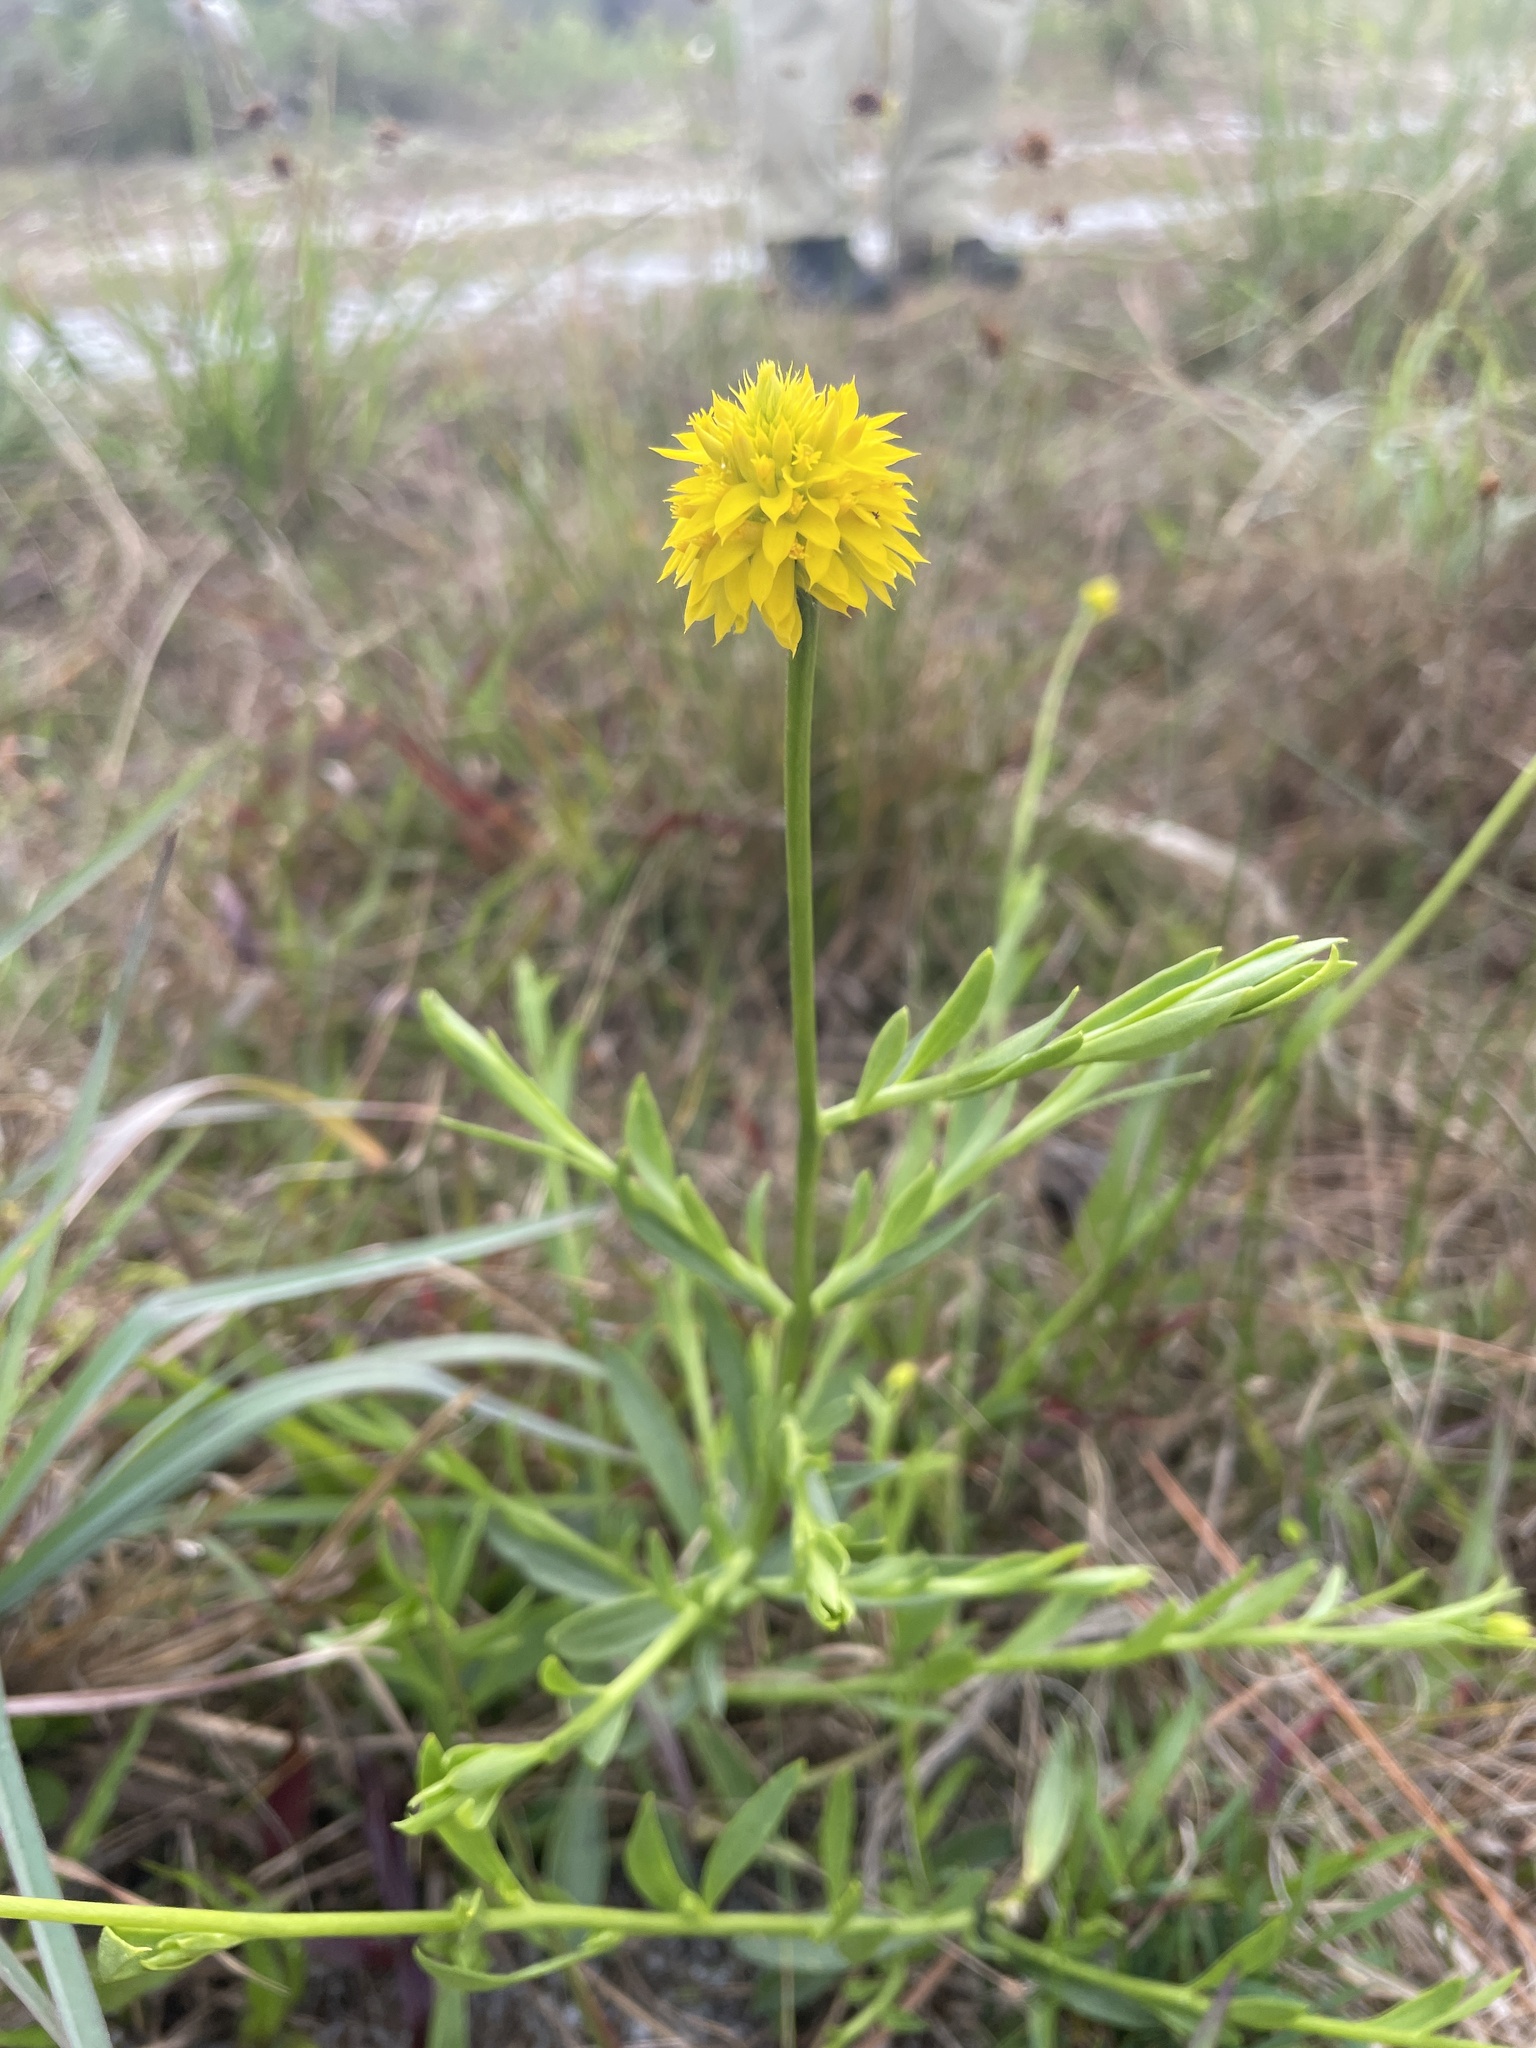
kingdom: Plantae
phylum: Tracheophyta
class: Magnoliopsida
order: Fabales
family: Polygalaceae
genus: Polygala
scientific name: Polygala rugelii
